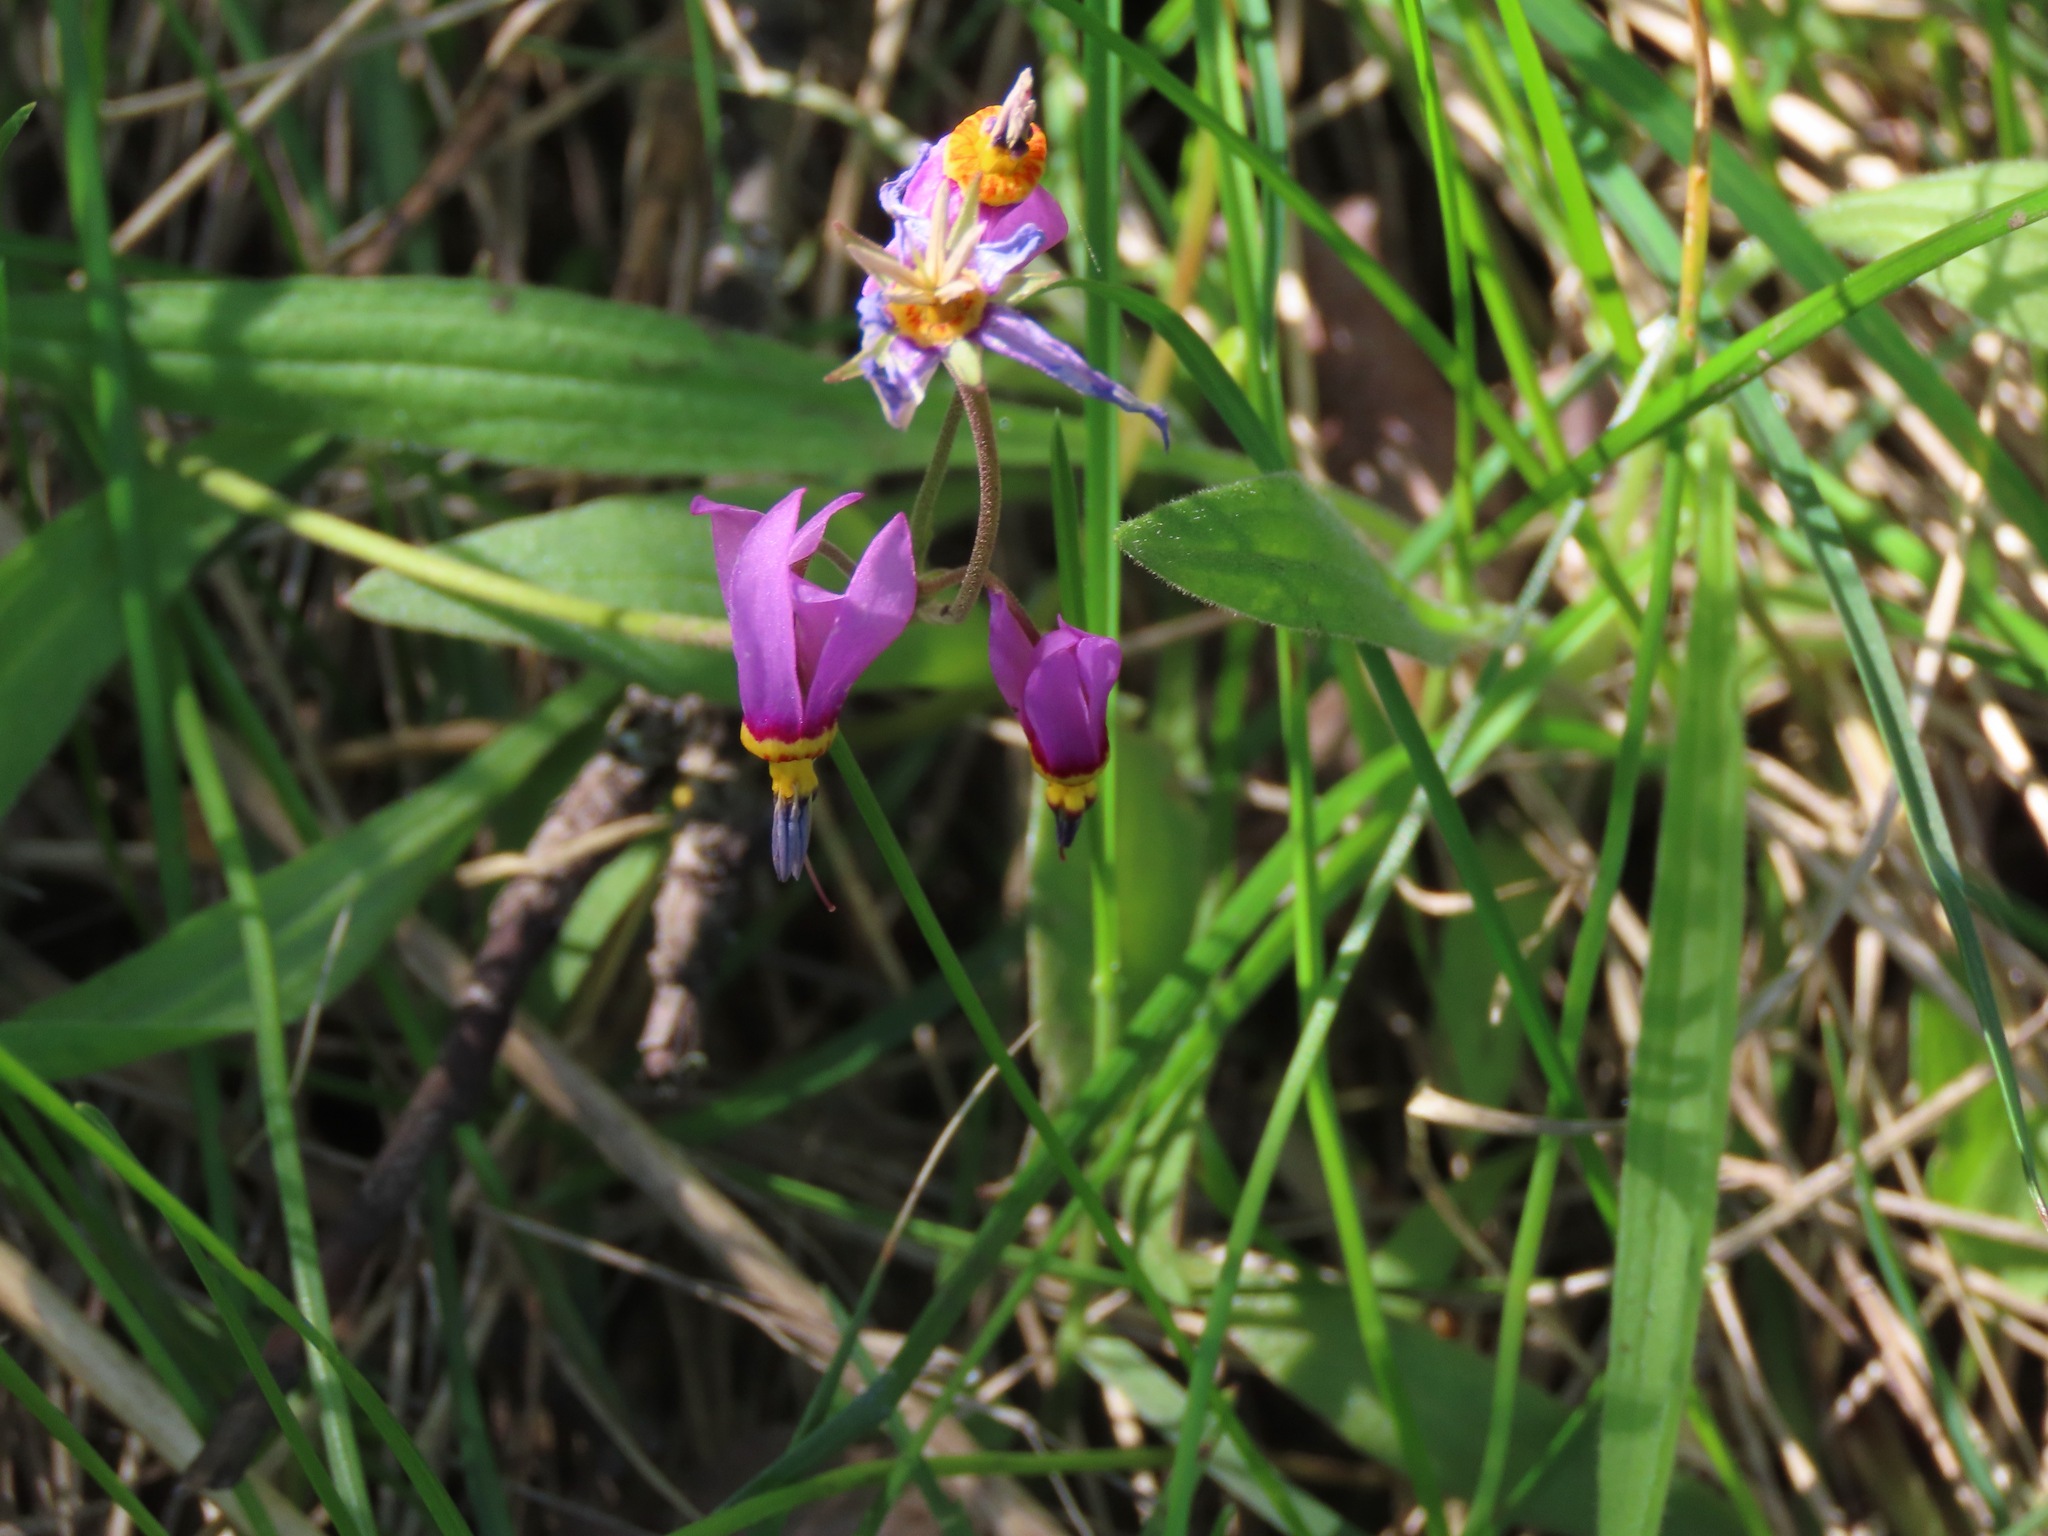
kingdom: Plantae
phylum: Tracheophyta
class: Magnoliopsida
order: Ericales
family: Primulaceae
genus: Dodecatheon
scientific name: Dodecatheon pulchellum
